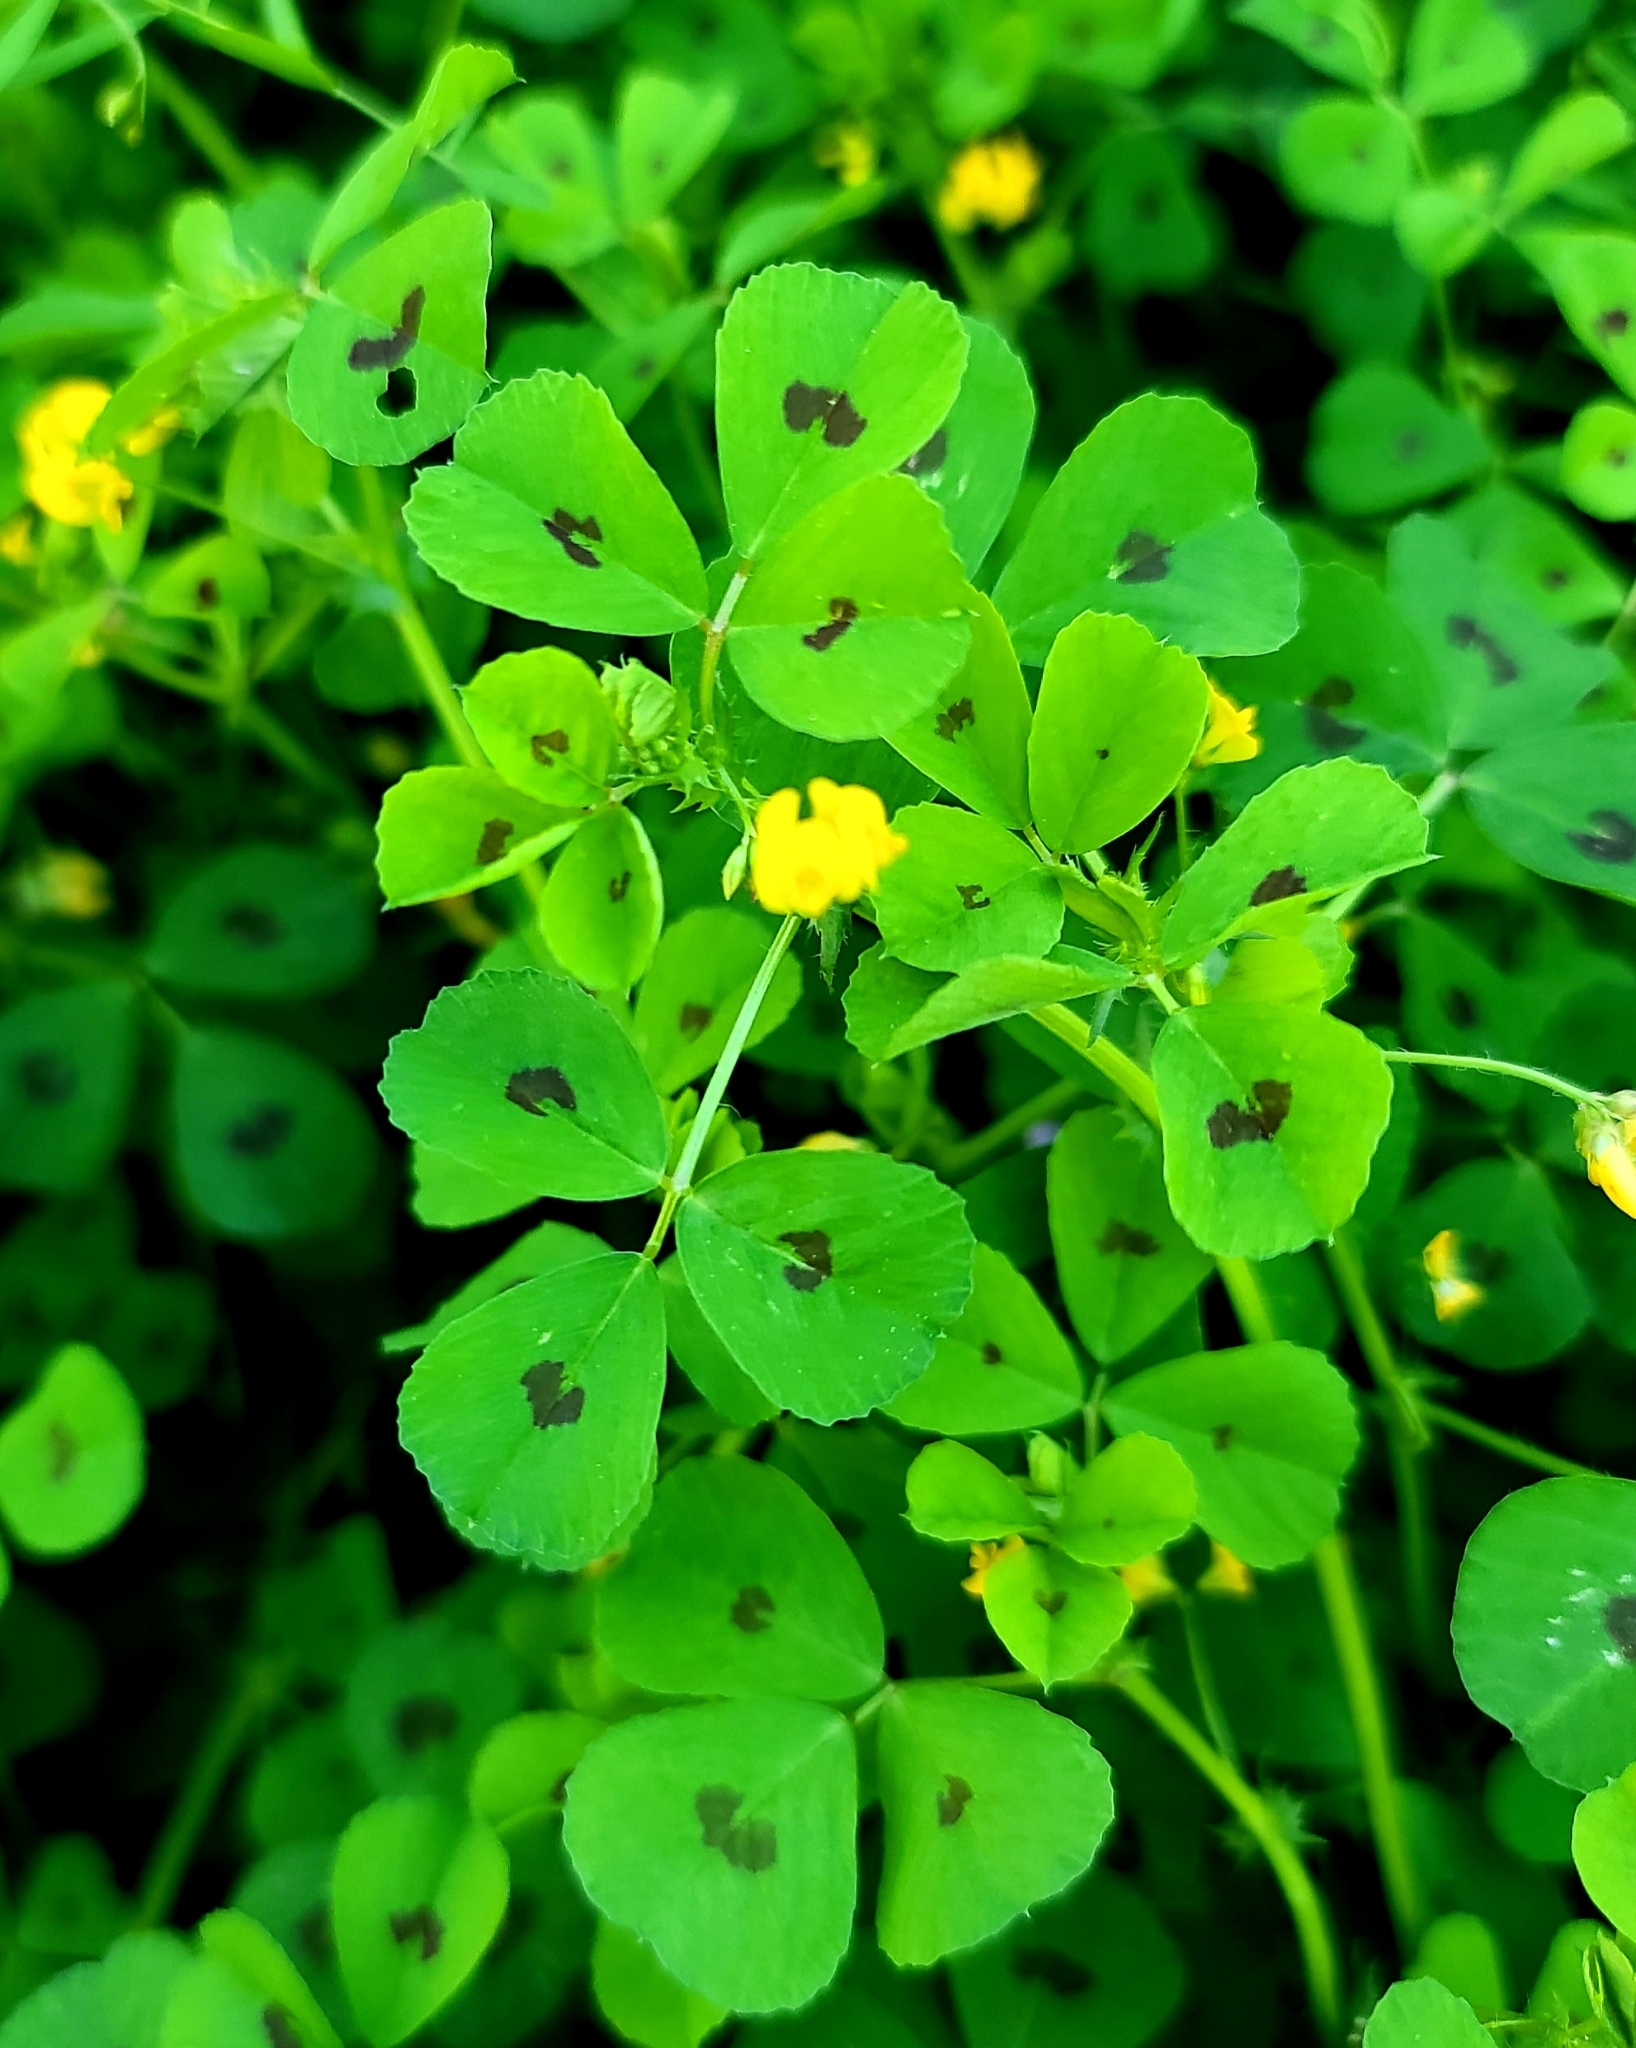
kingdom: Plantae
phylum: Tracheophyta
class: Magnoliopsida
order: Fabales
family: Fabaceae
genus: Medicago
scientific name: Medicago arabica
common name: Spotted medick
